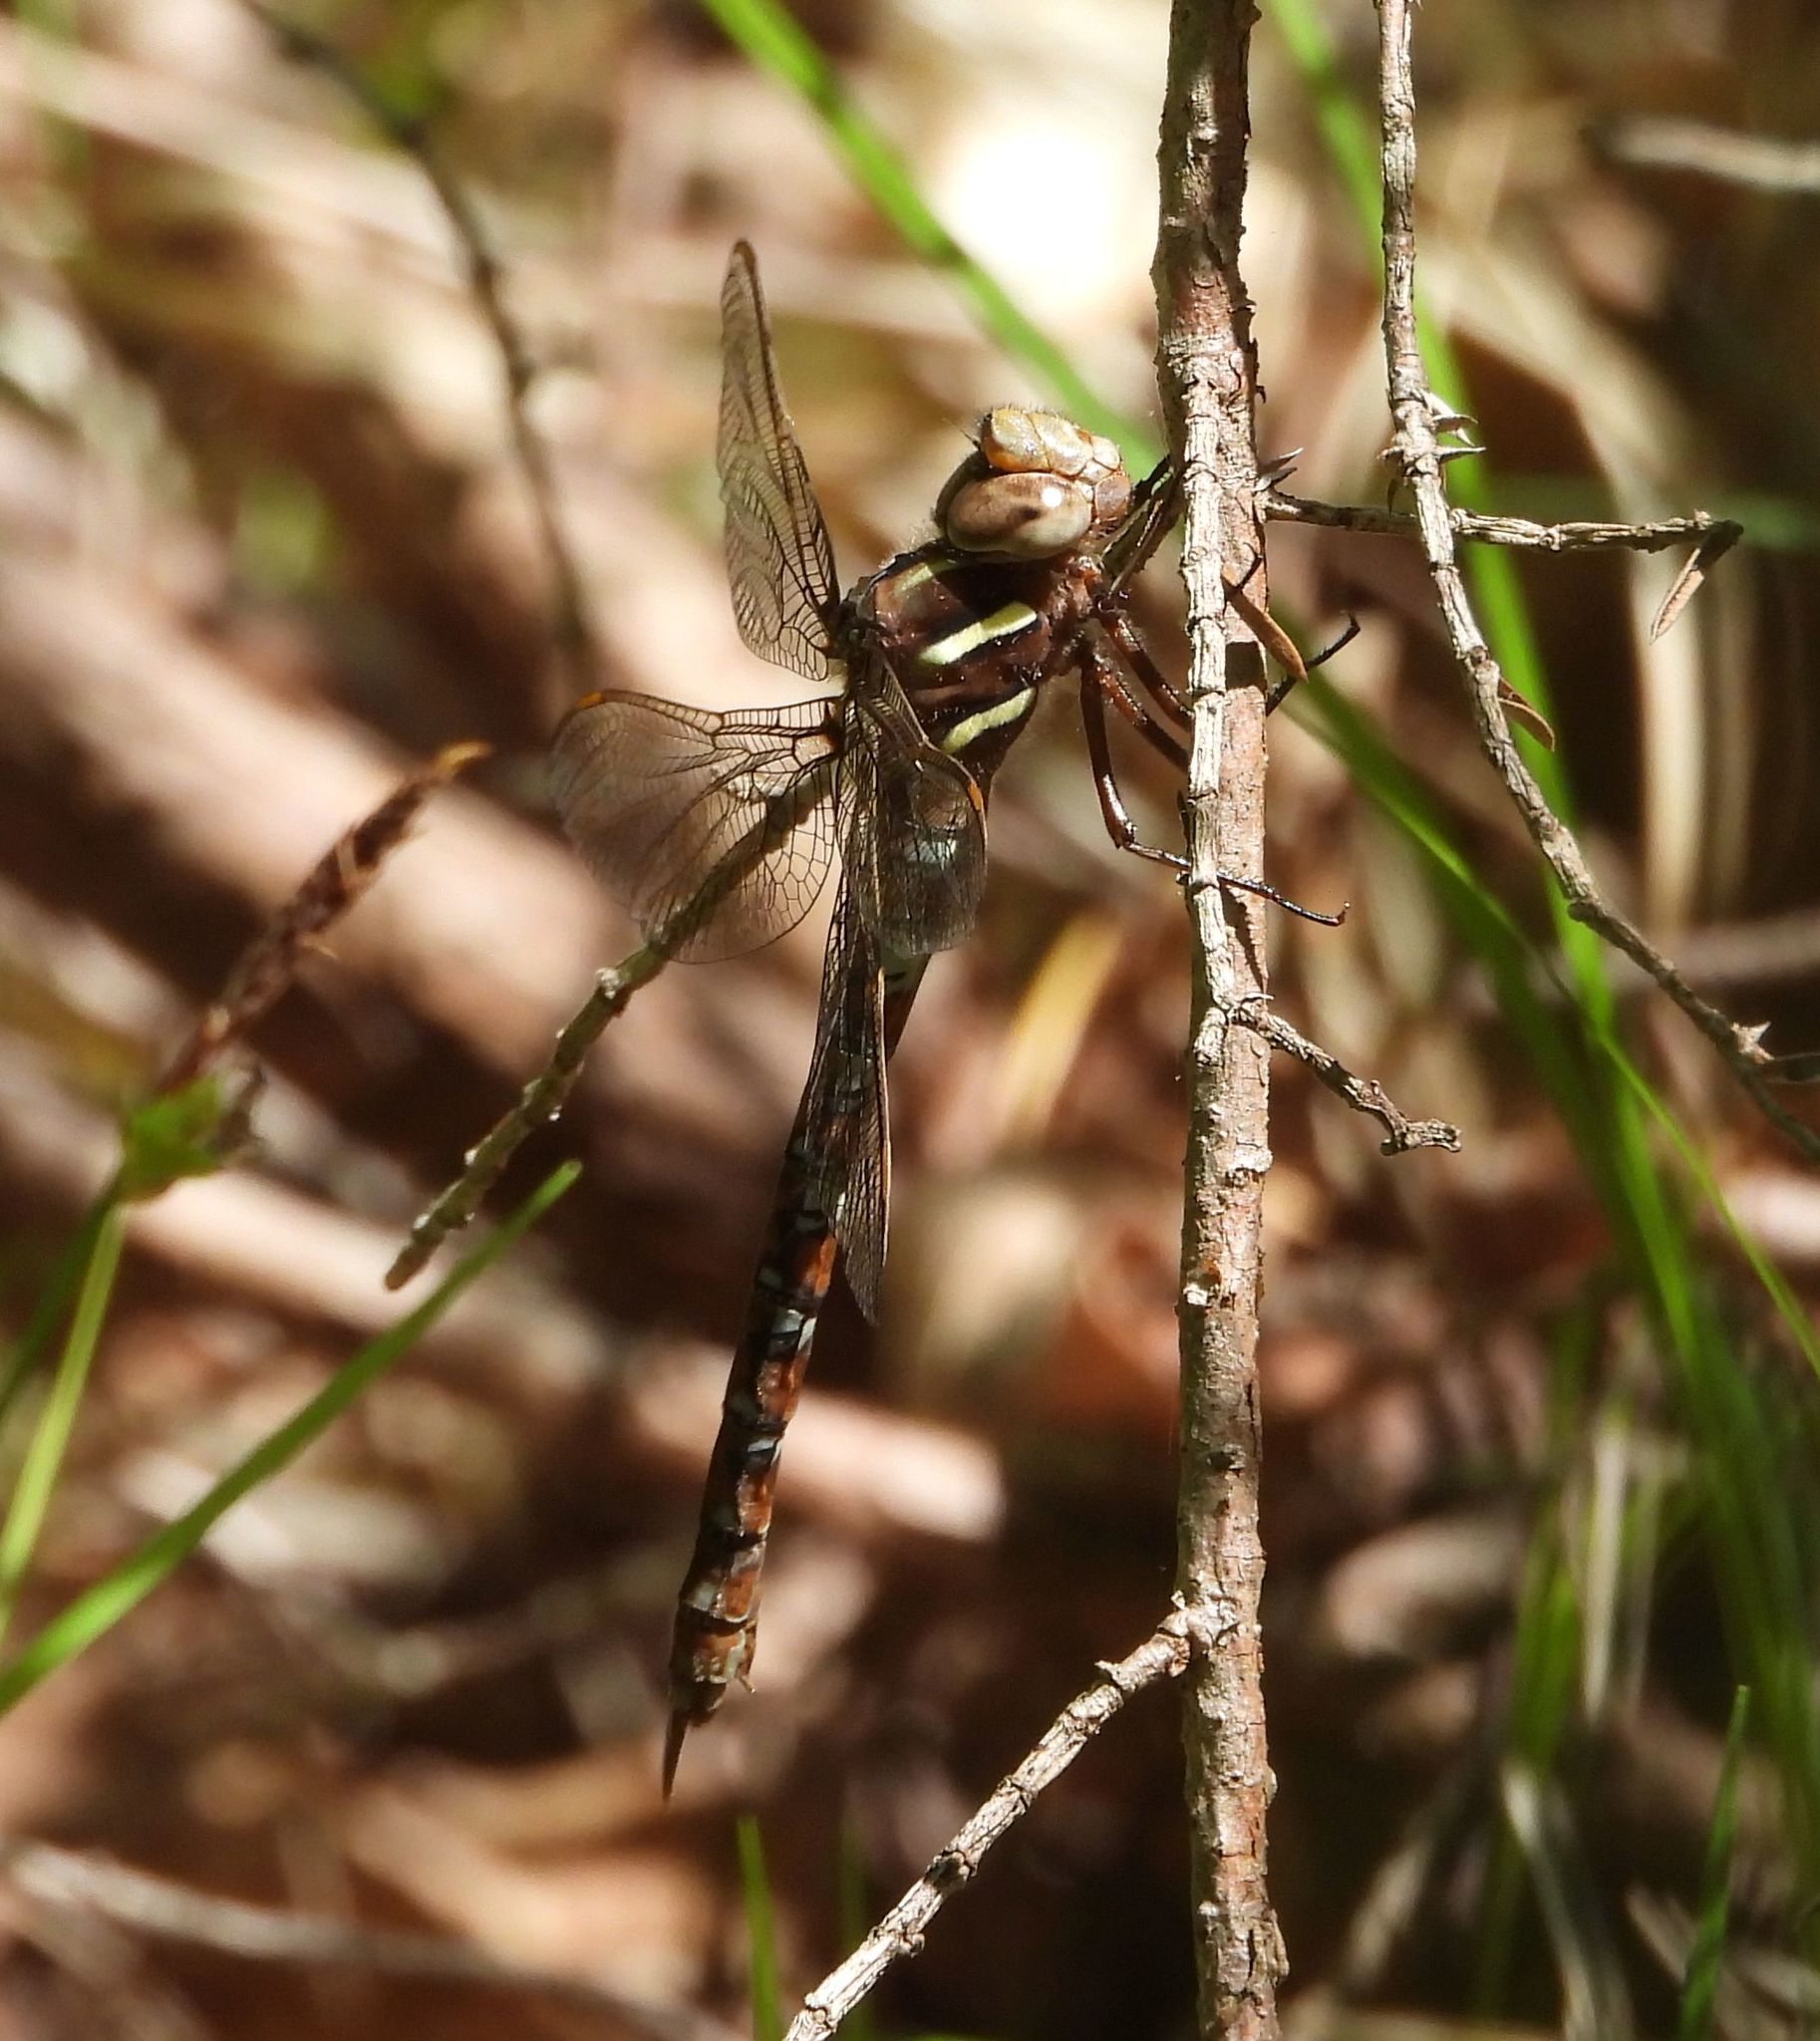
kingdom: Animalia
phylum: Arthropoda
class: Insecta
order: Odonata
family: Aeshnidae
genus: Basiaeschna
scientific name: Basiaeschna janata
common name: Springtime darner
